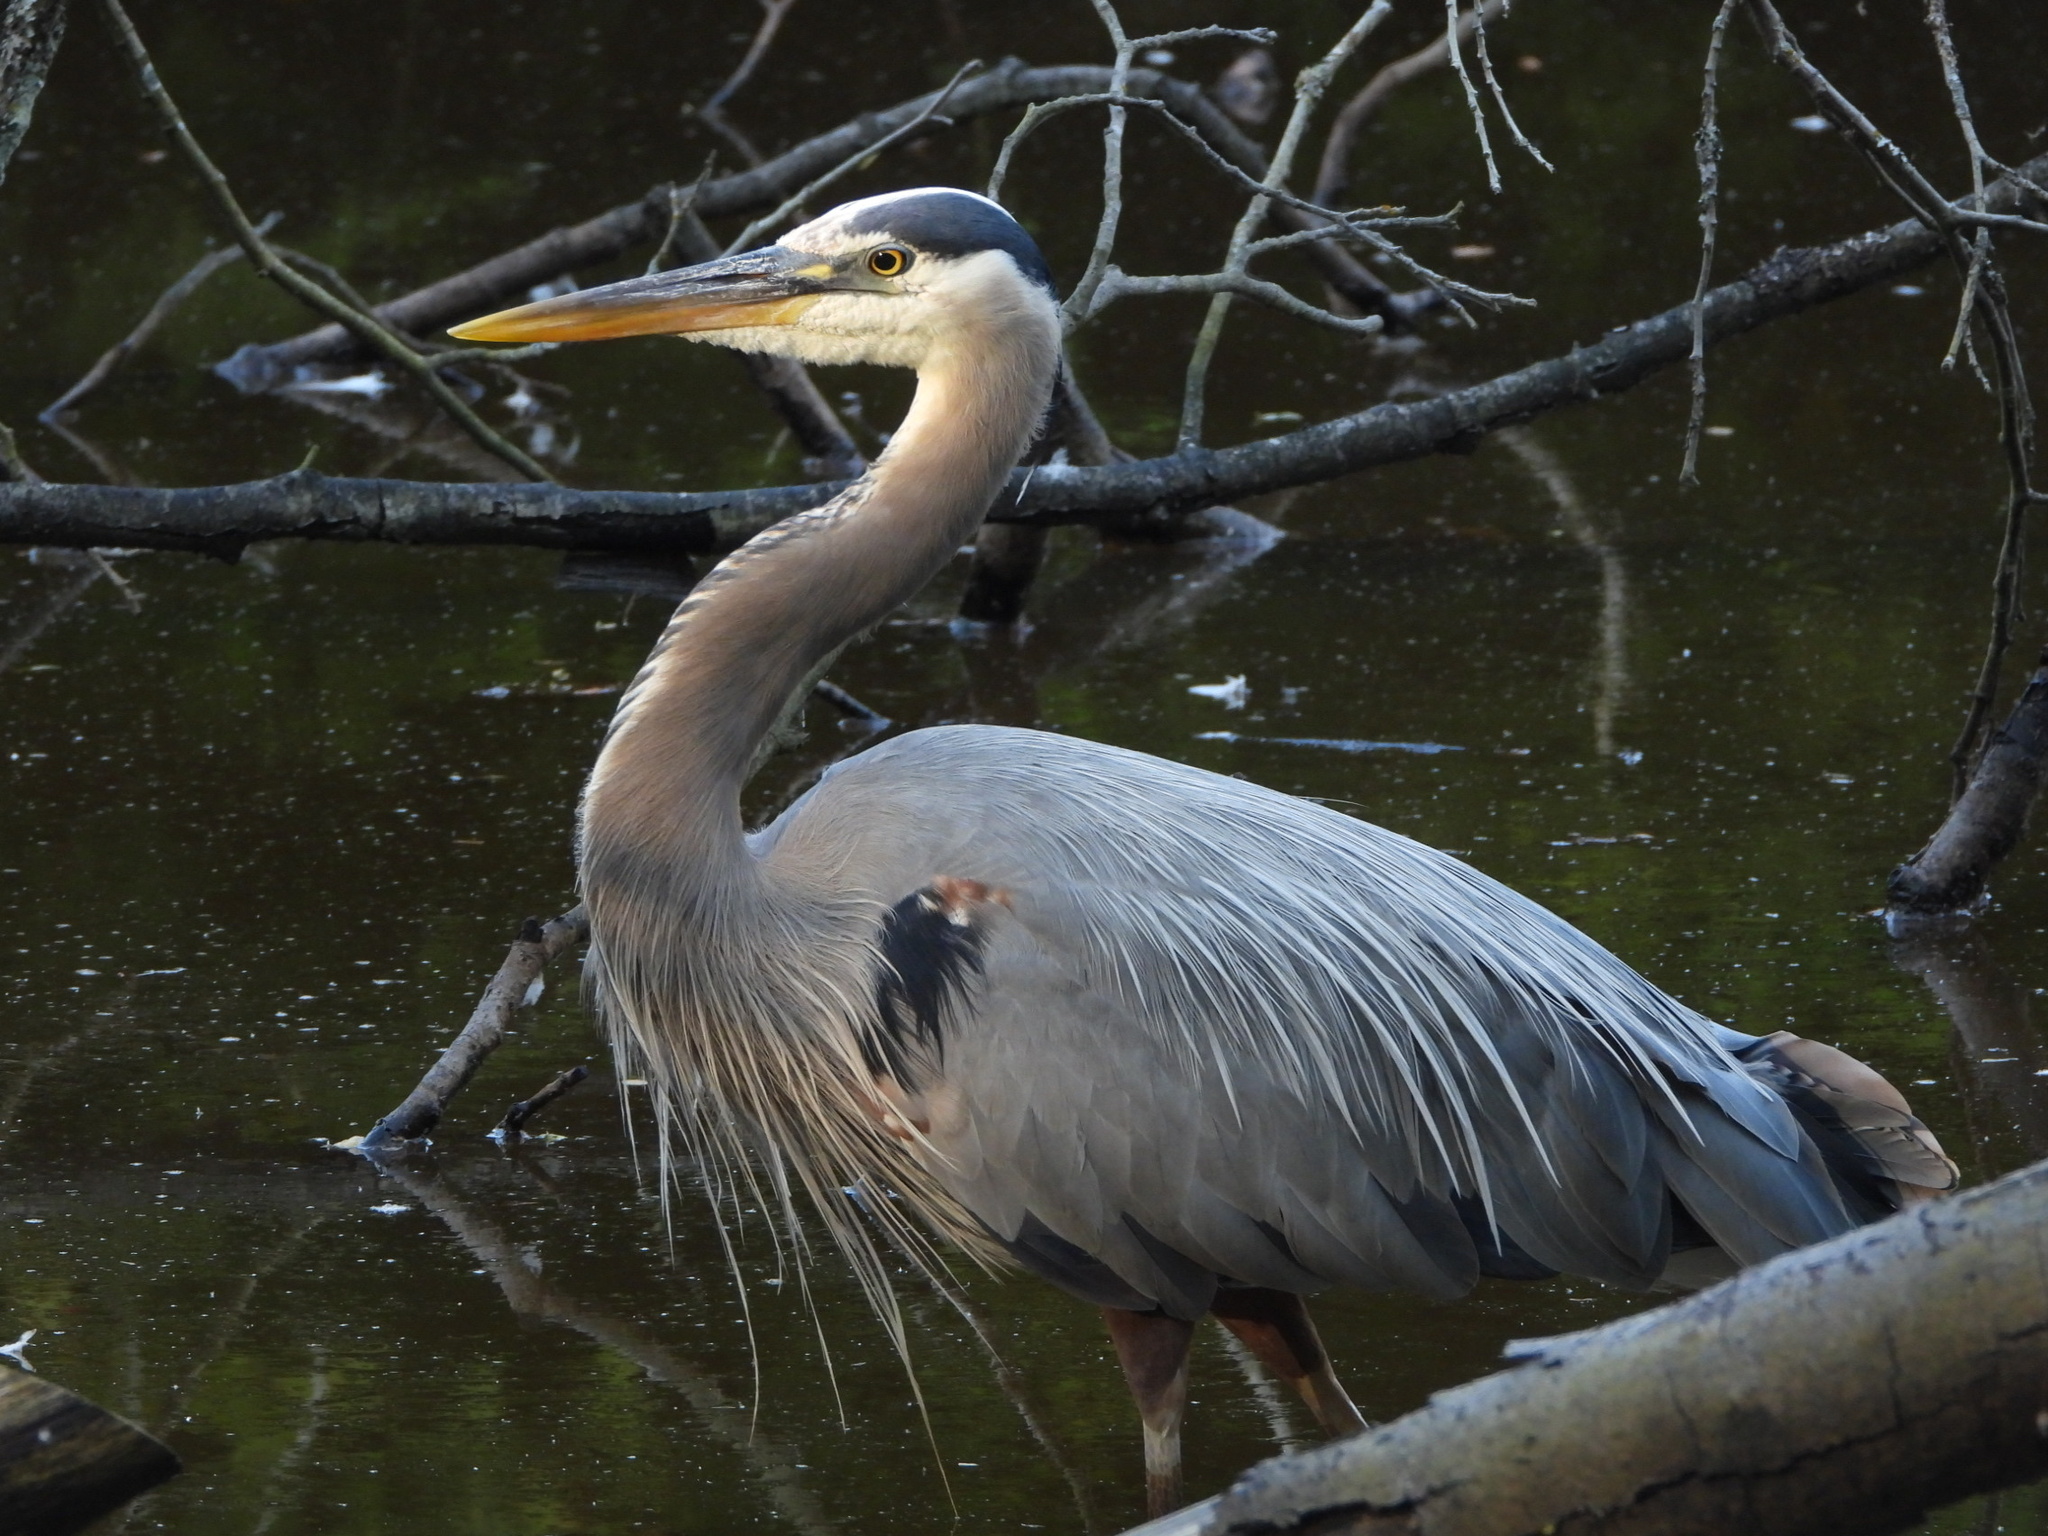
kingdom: Animalia
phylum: Chordata
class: Aves
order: Pelecaniformes
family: Ardeidae
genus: Ardea
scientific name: Ardea herodias
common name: Great blue heron
